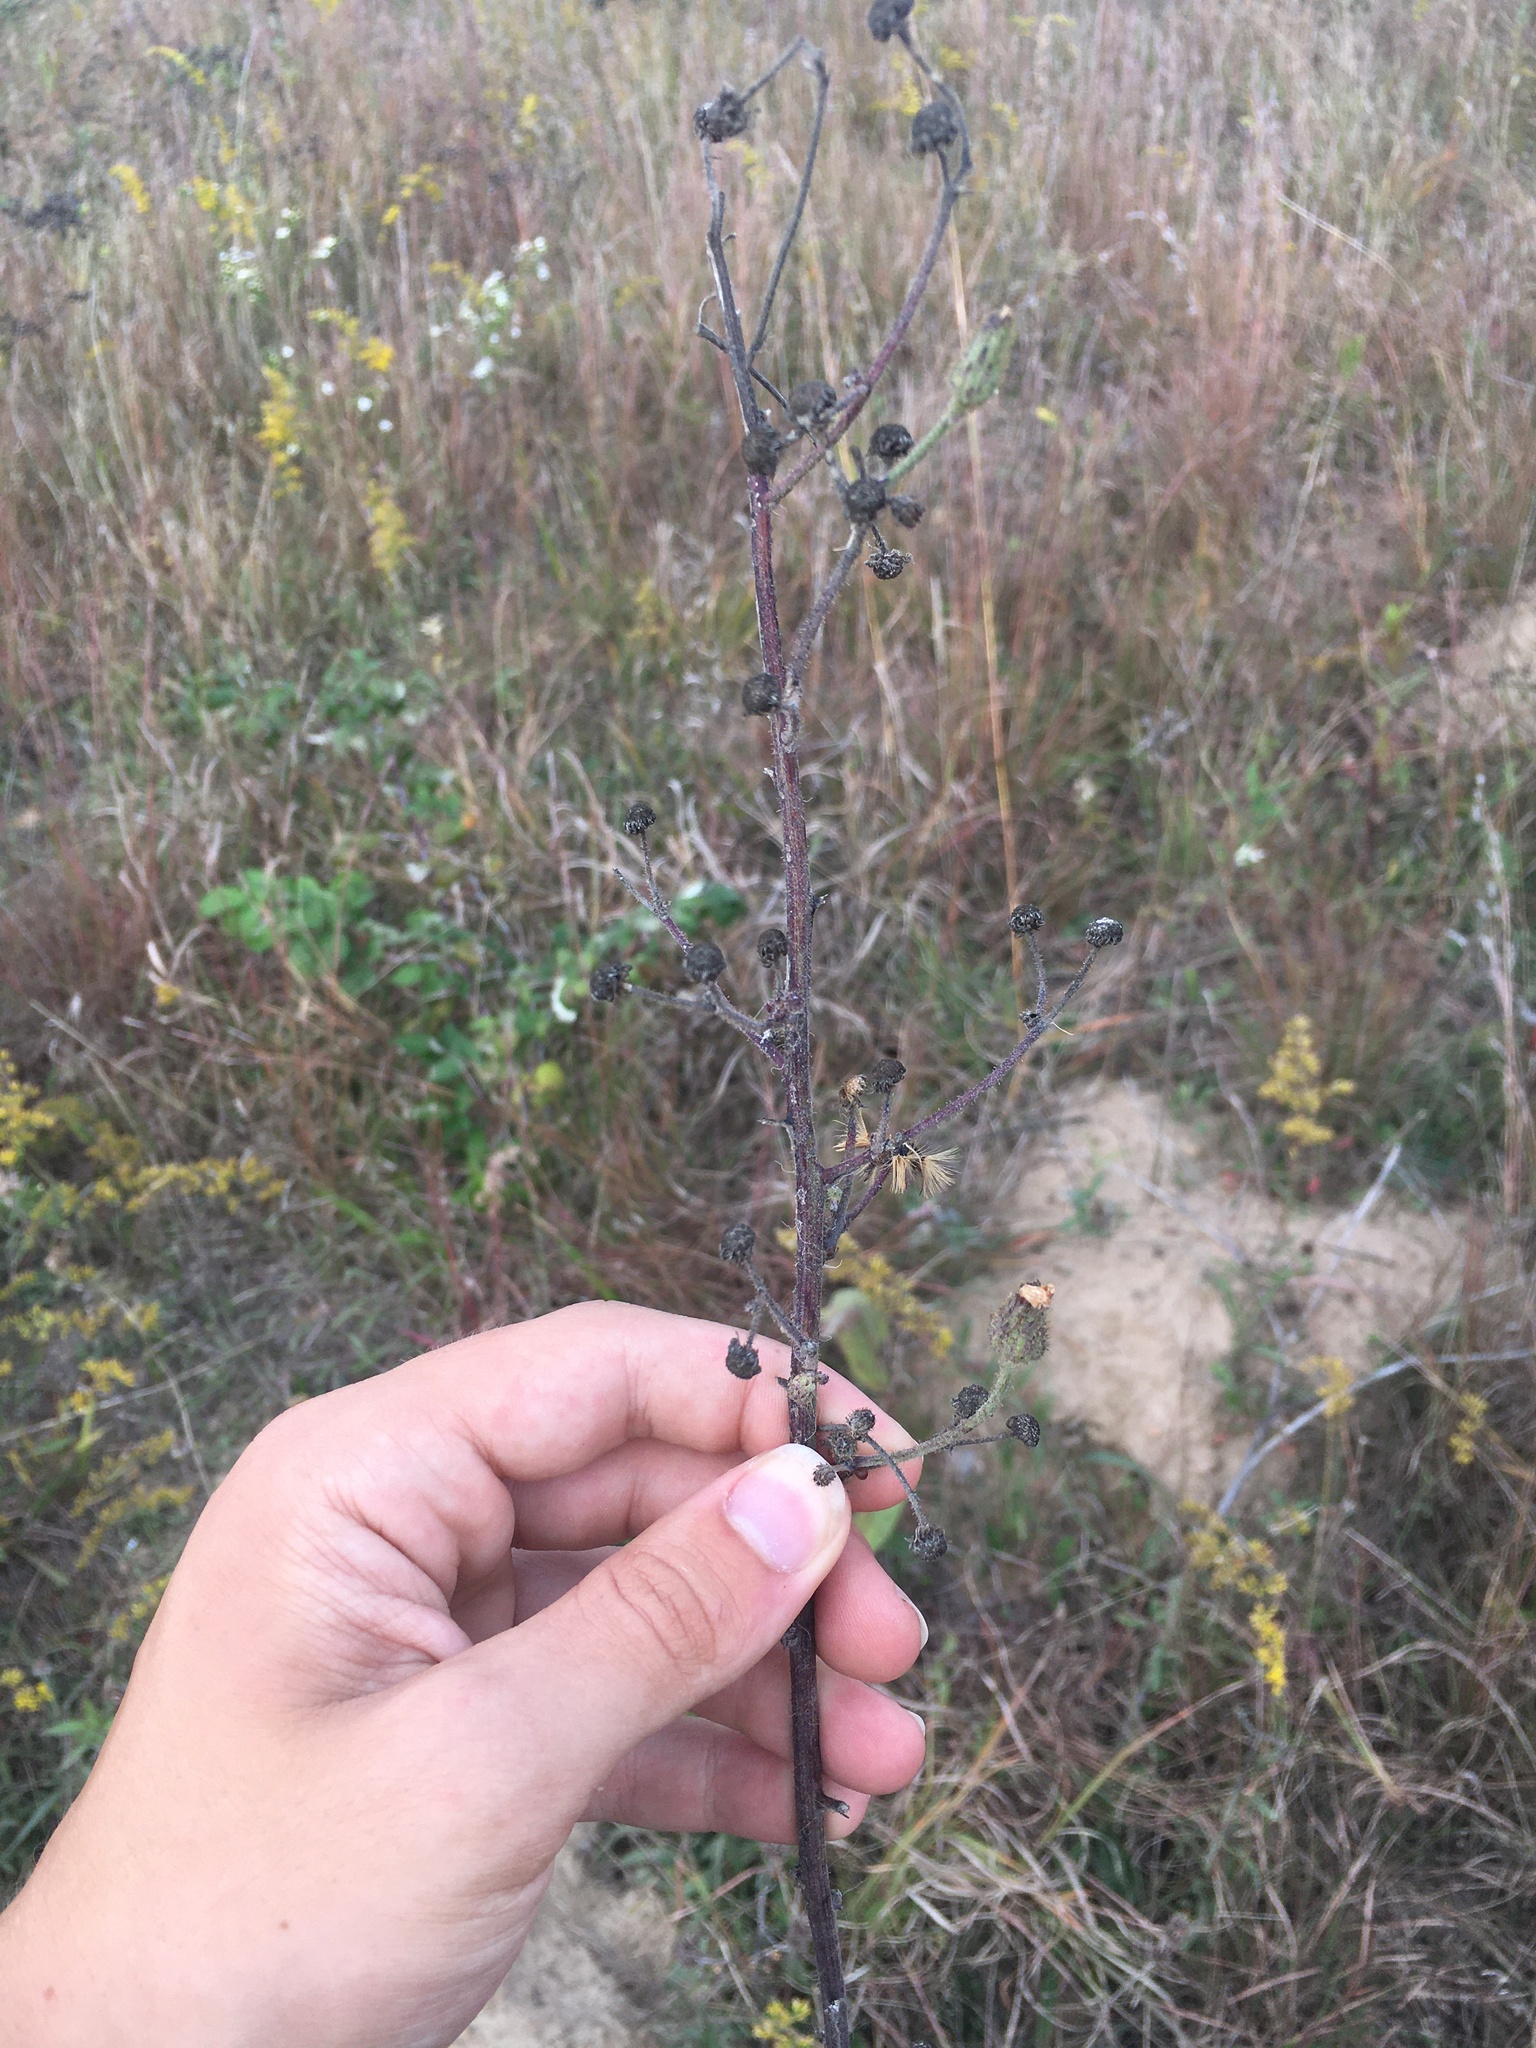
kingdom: Plantae
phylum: Tracheophyta
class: Magnoliopsida
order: Asterales
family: Asteraceae
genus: Hieracium
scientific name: Hieracium longipilum
